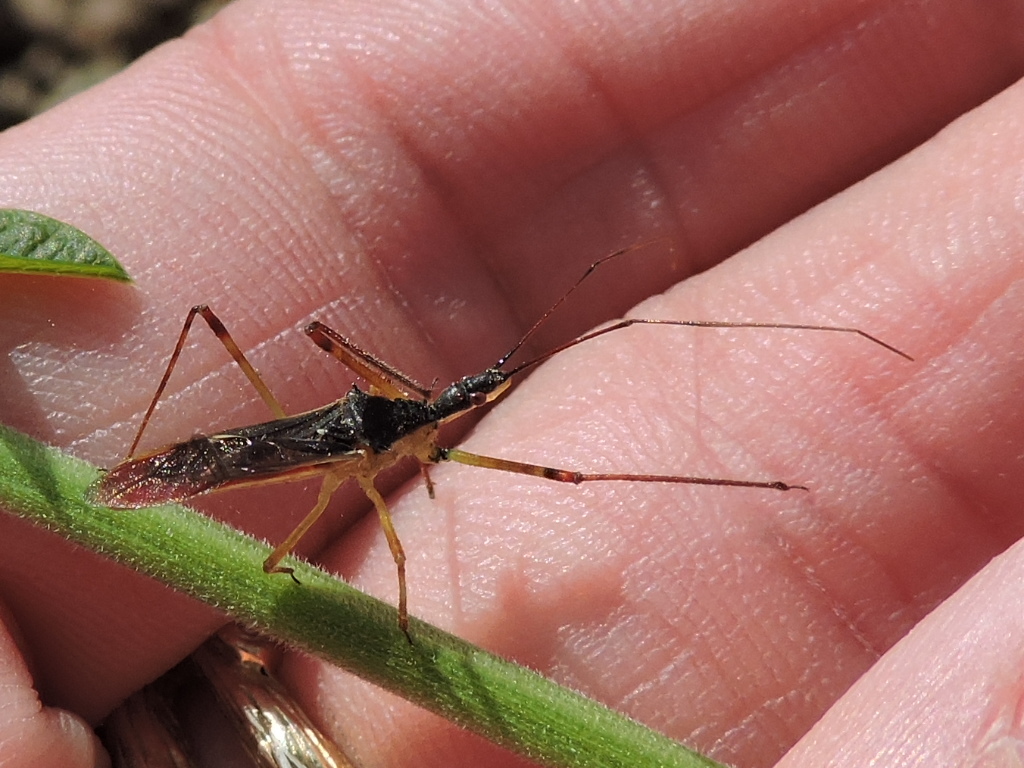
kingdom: Animalia
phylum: Arthropoda
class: Insecta
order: Hemiptera
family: Reduviidae
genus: Zelus
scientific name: Zelus luridus
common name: Pale green assassin bug
